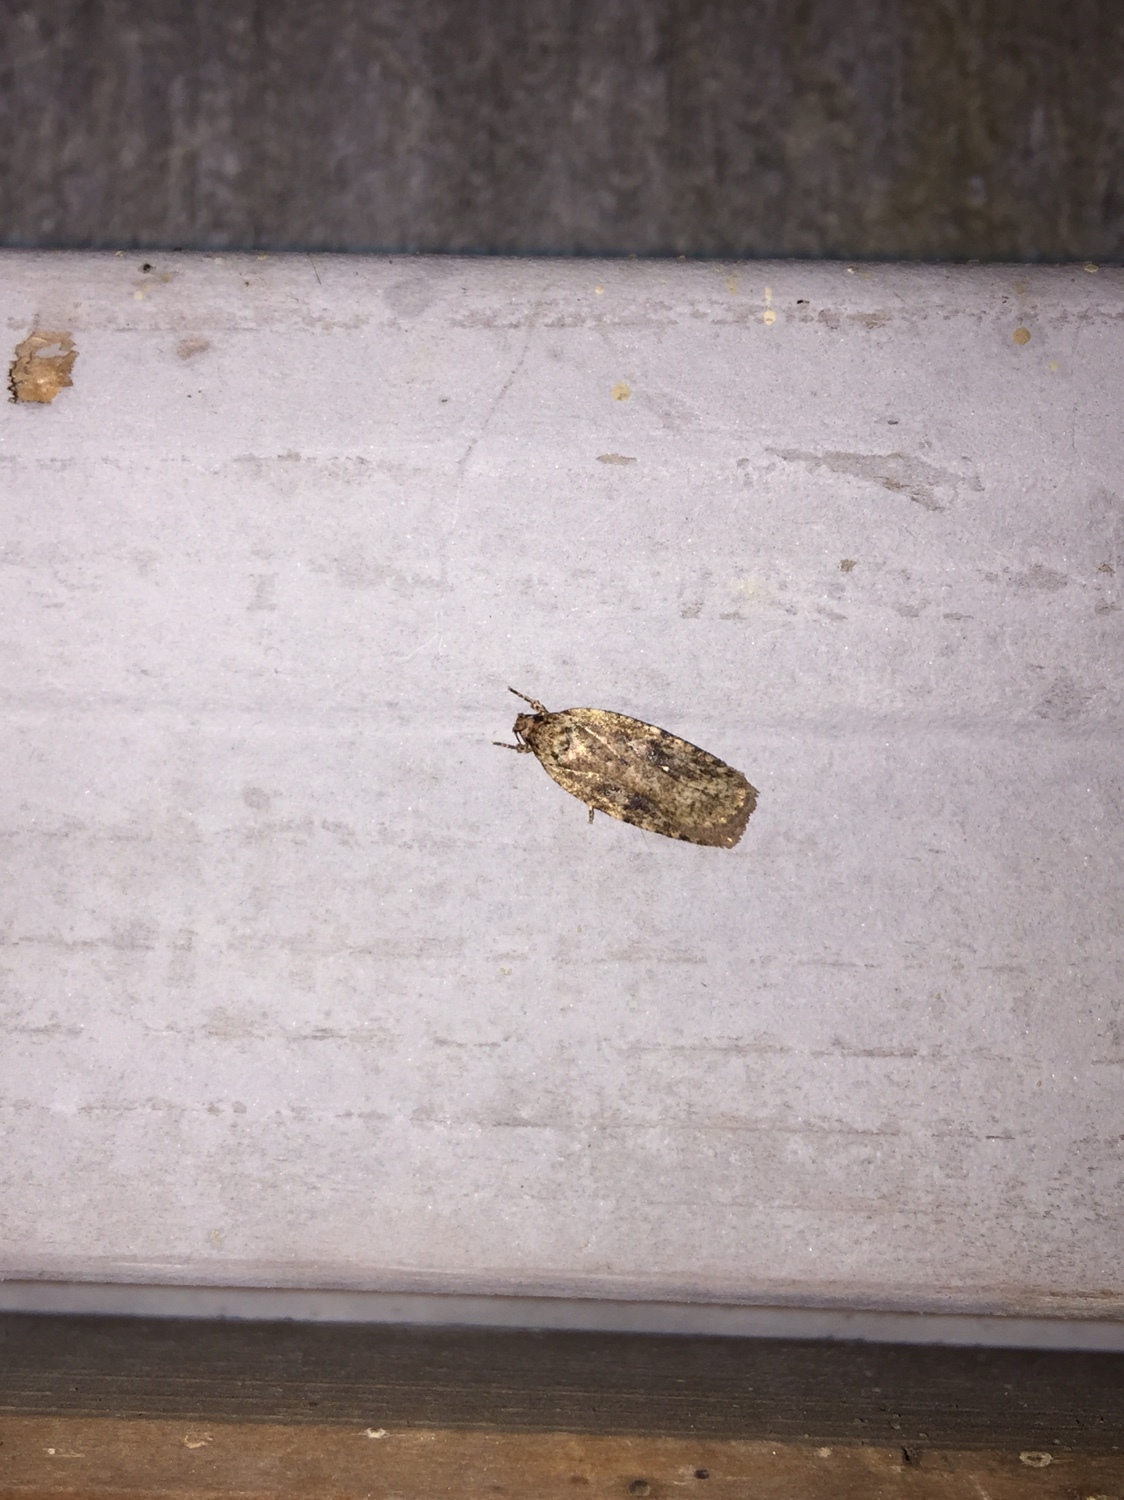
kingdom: Animalia
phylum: Arthropoda
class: Insecta
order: Lepidoptera
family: Depressariidae
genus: Agonopterix
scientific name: Agonopterix pulvipennella
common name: Goldenrod leafffolder
